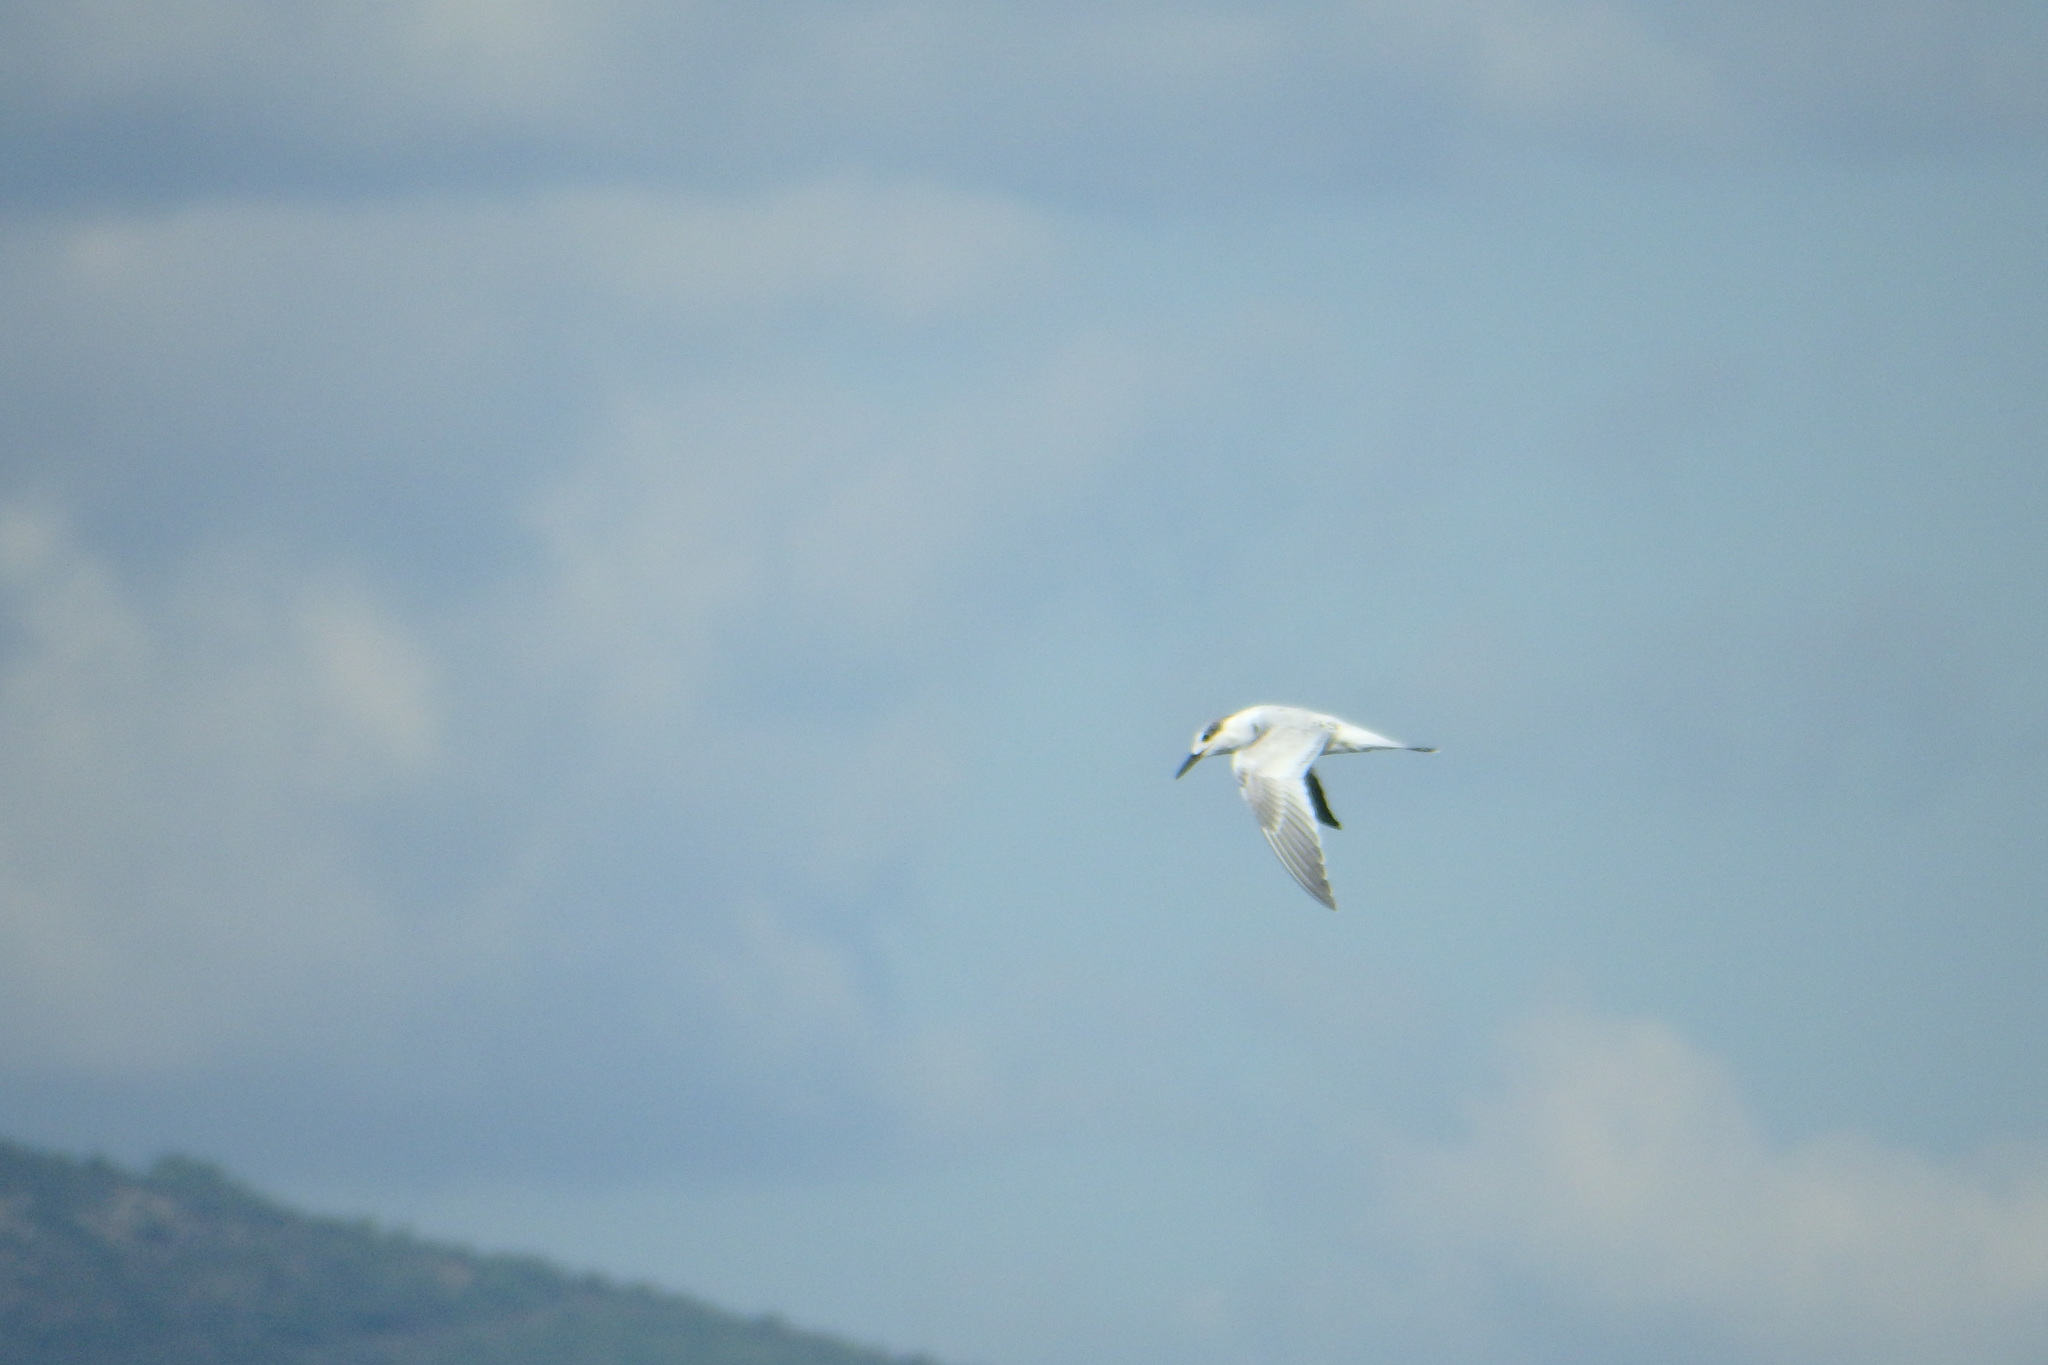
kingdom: Animalia
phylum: Chordata
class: Aves
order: Charadriiformes
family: Laridae
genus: Thalasseus
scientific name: Thalasseus sandvicensis
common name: Sandwich tern
